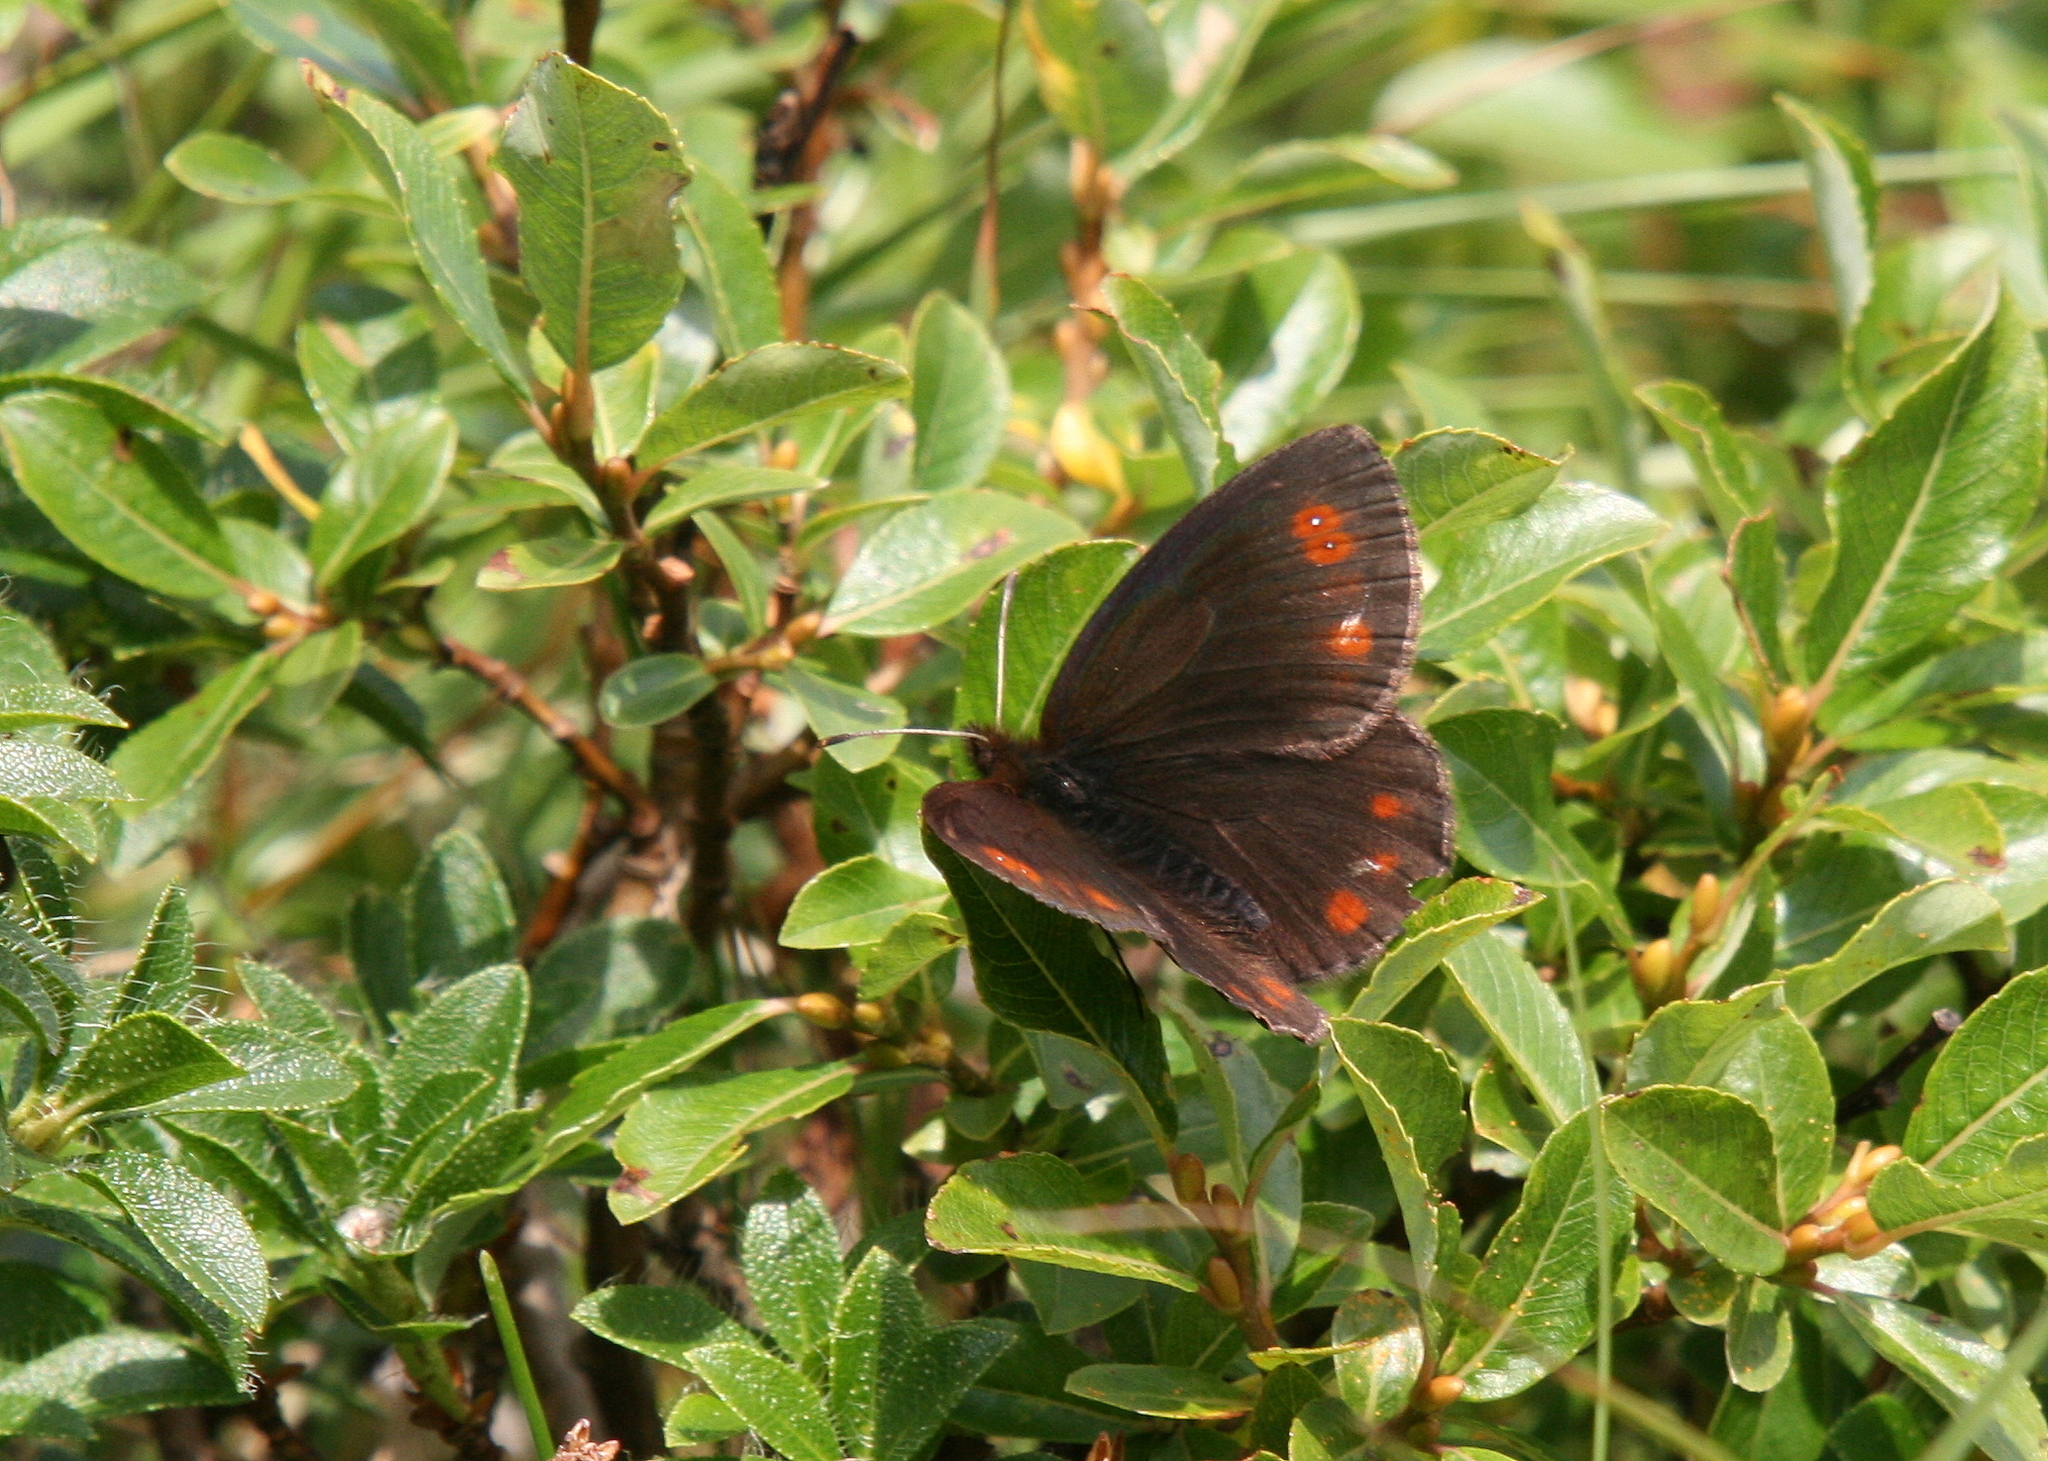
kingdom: Animalia
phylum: Arthropoda
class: Insecta
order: Lepidoptera
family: Nymphalidae
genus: Erebia
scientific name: Erebia pronoe
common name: Water ringlet
